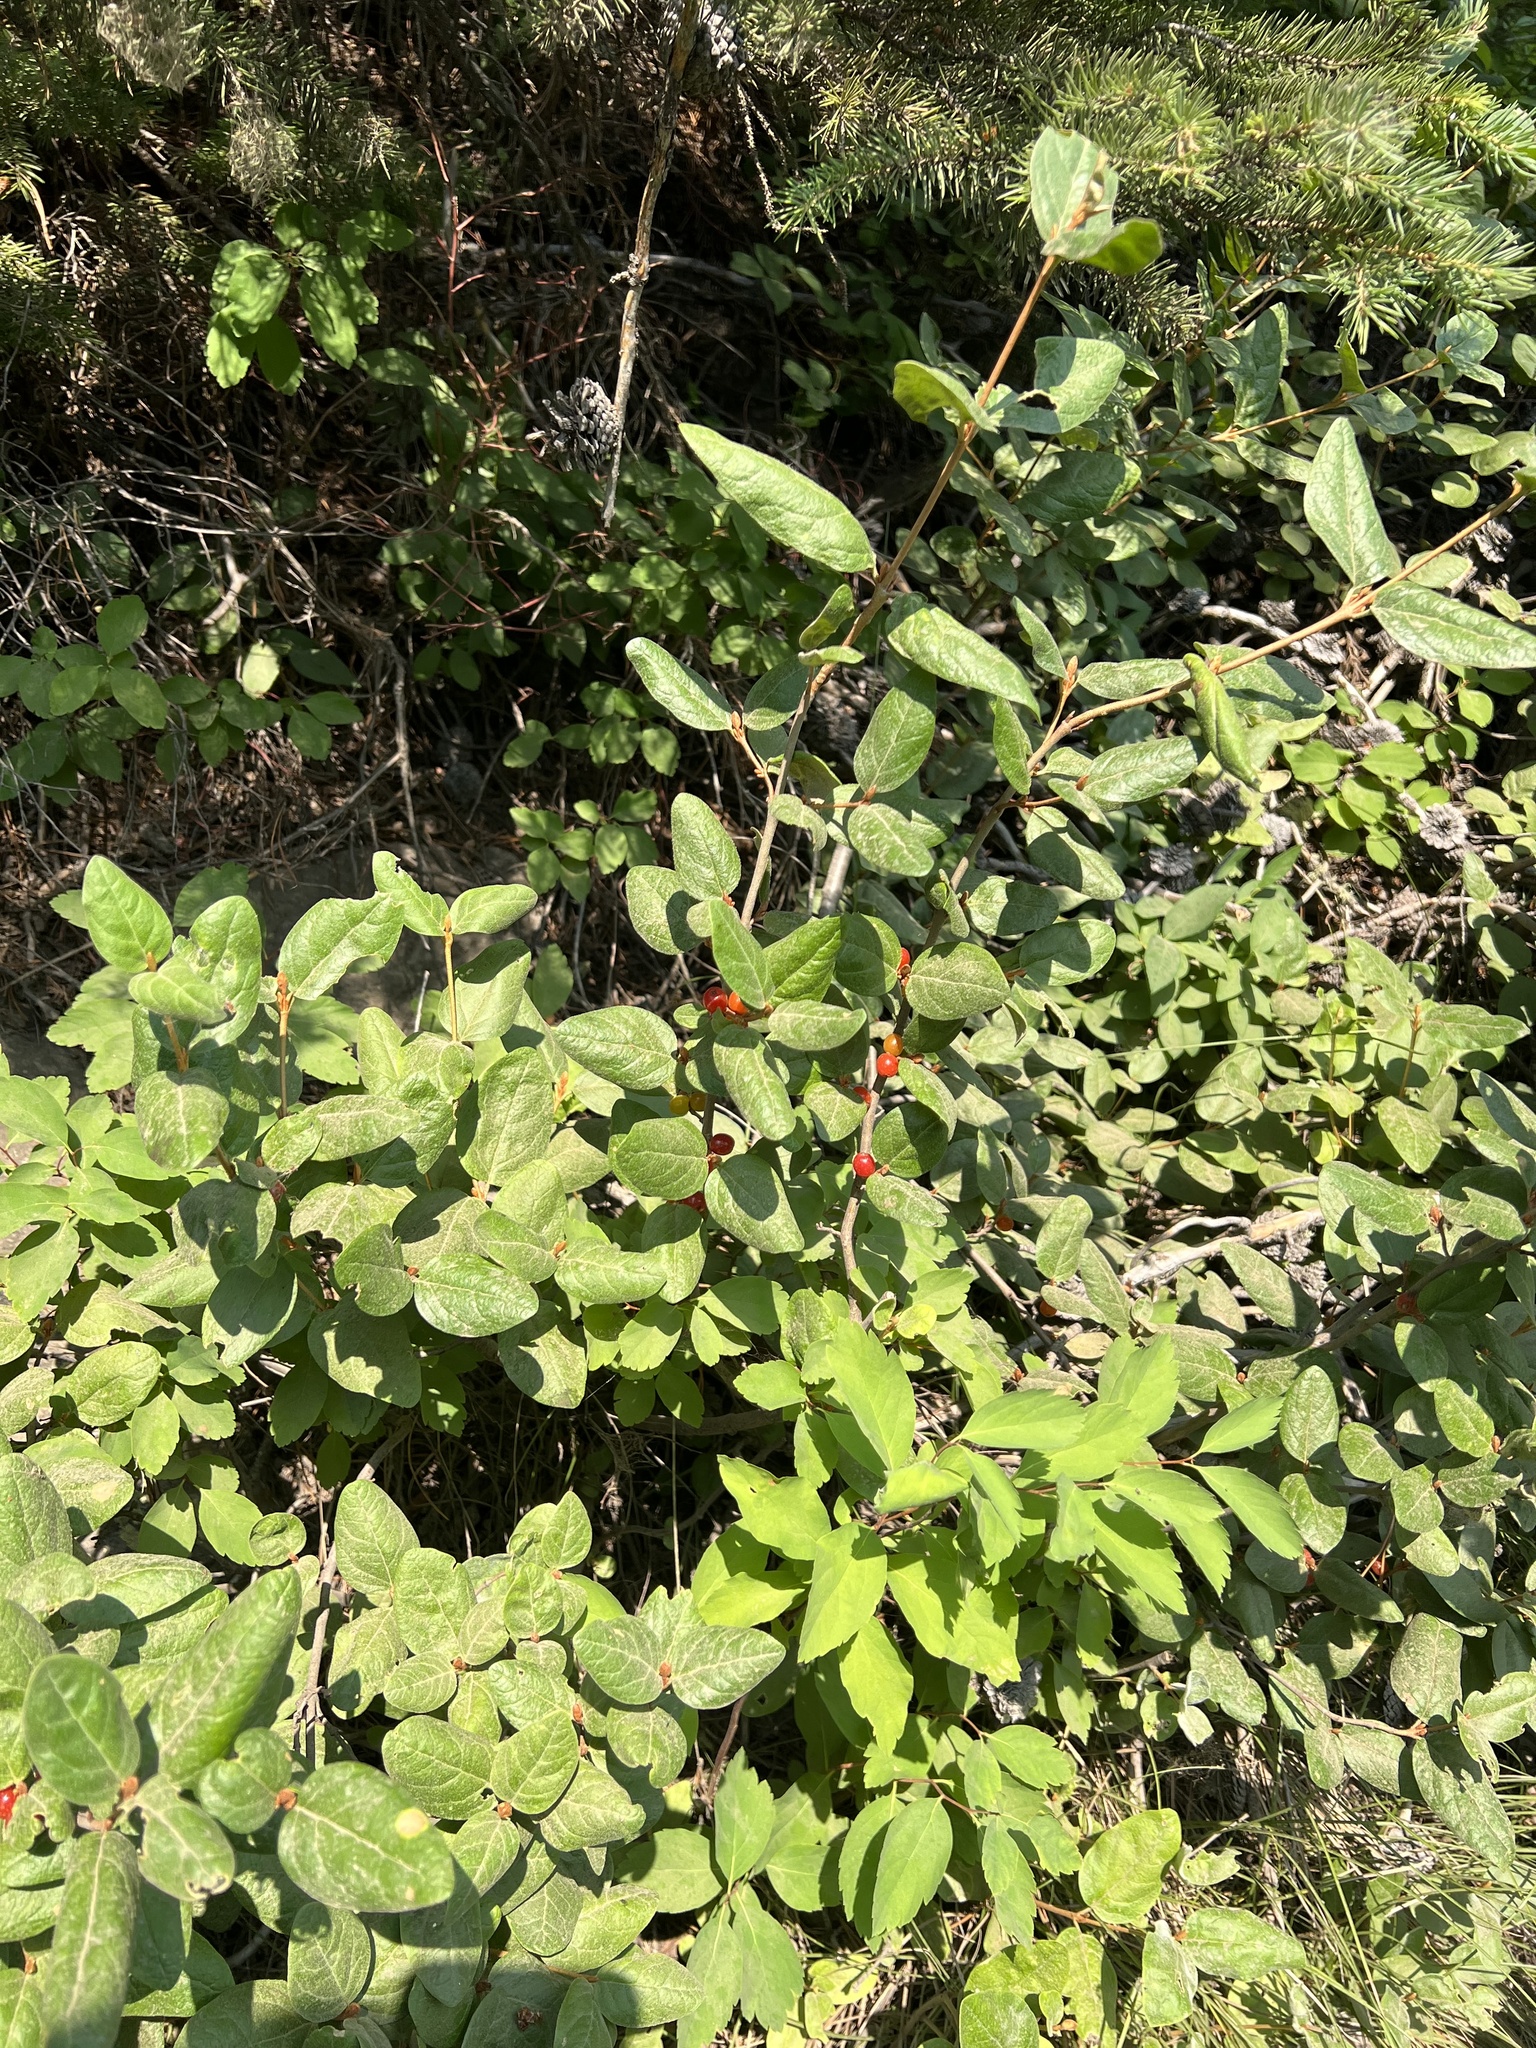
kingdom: Plantae
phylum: Tracheophyta
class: Magnoliopsida
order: Rosales
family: Elaeagnaceae
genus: Shepherdia
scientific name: Shepherdia canadensis
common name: Soapberry
